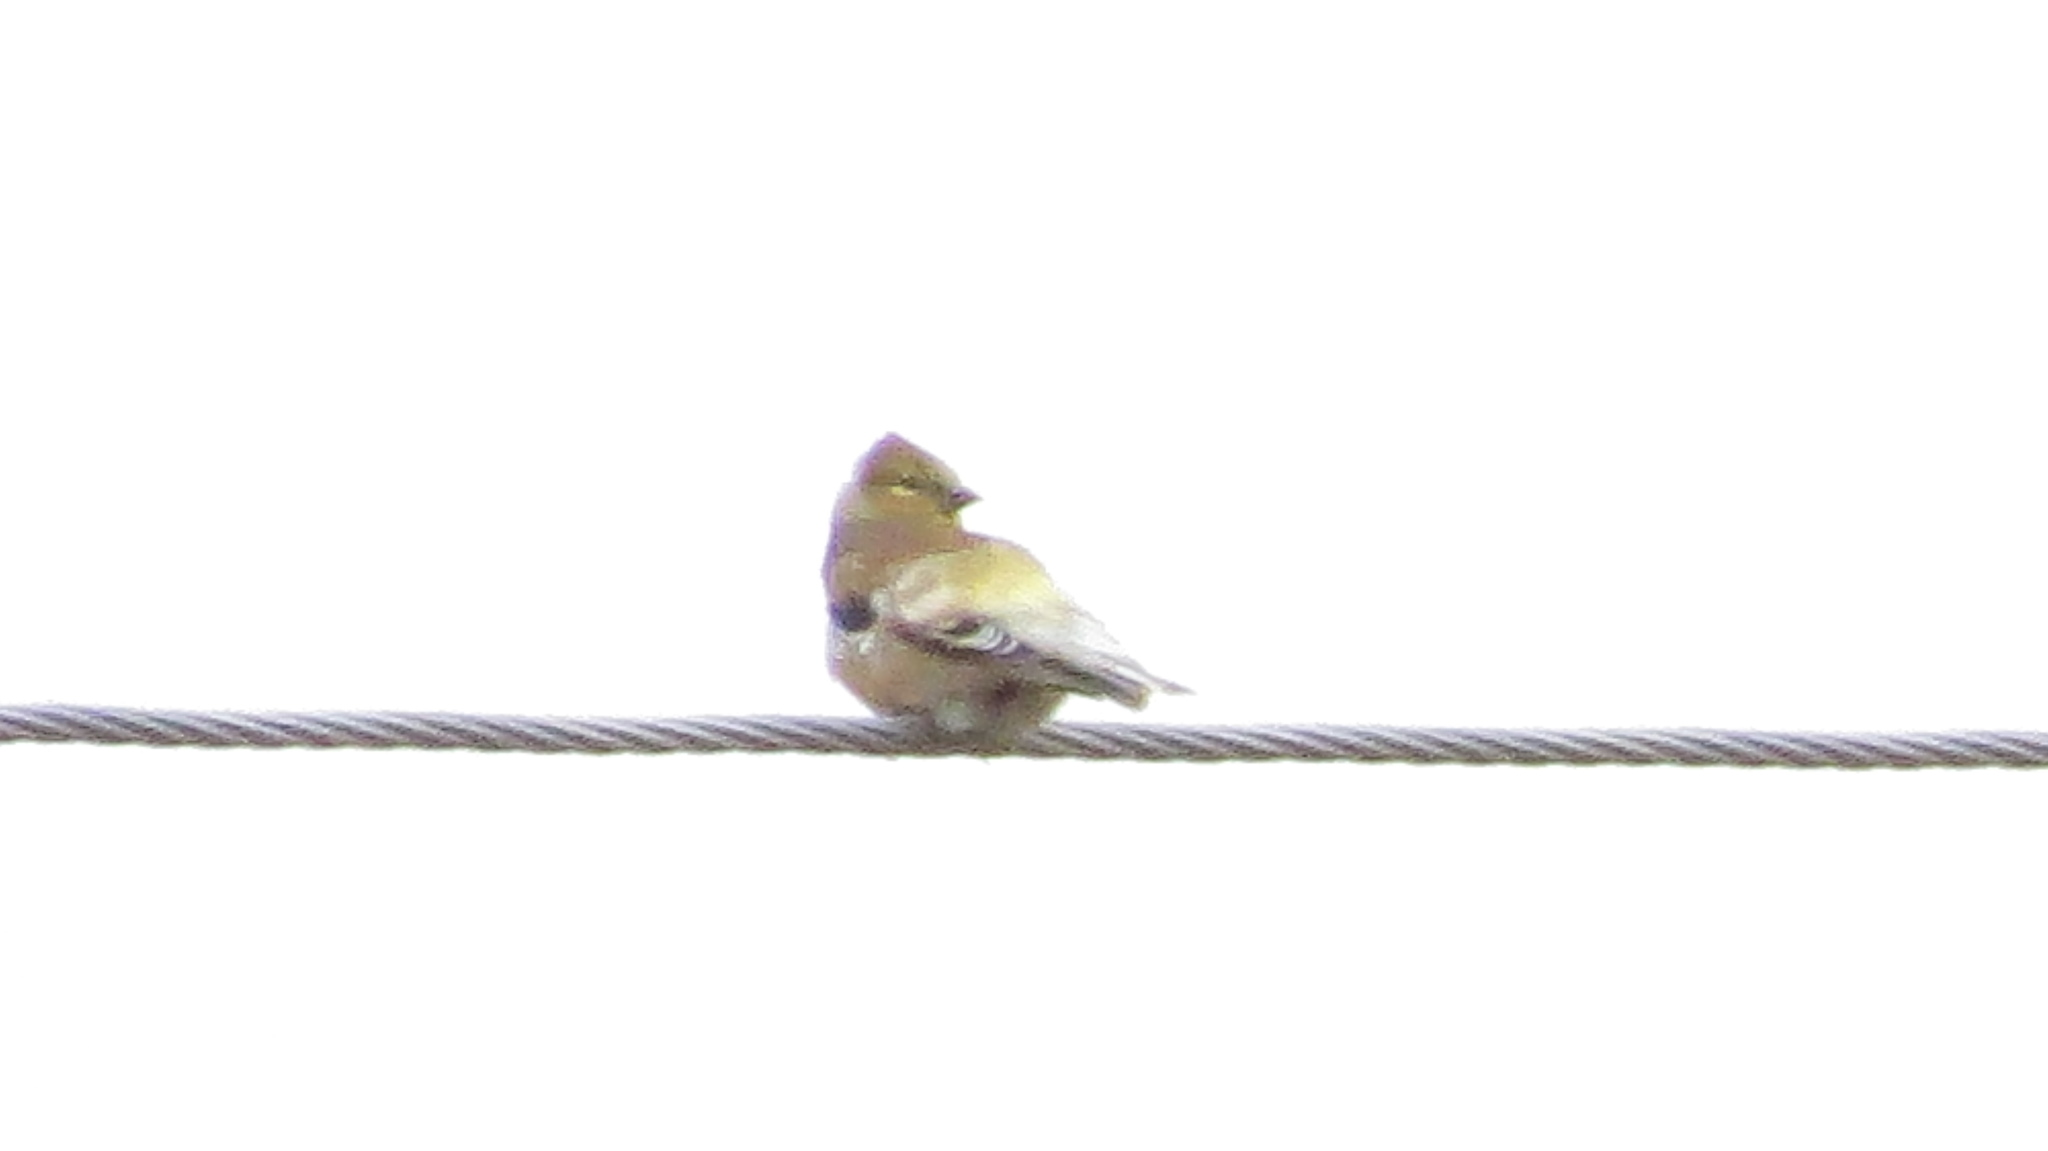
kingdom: Animalia
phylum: Chordata
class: Aves
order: Passeriformes
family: Fringillidae
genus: Spinus
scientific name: Spinus tristis
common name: American goldfinch
